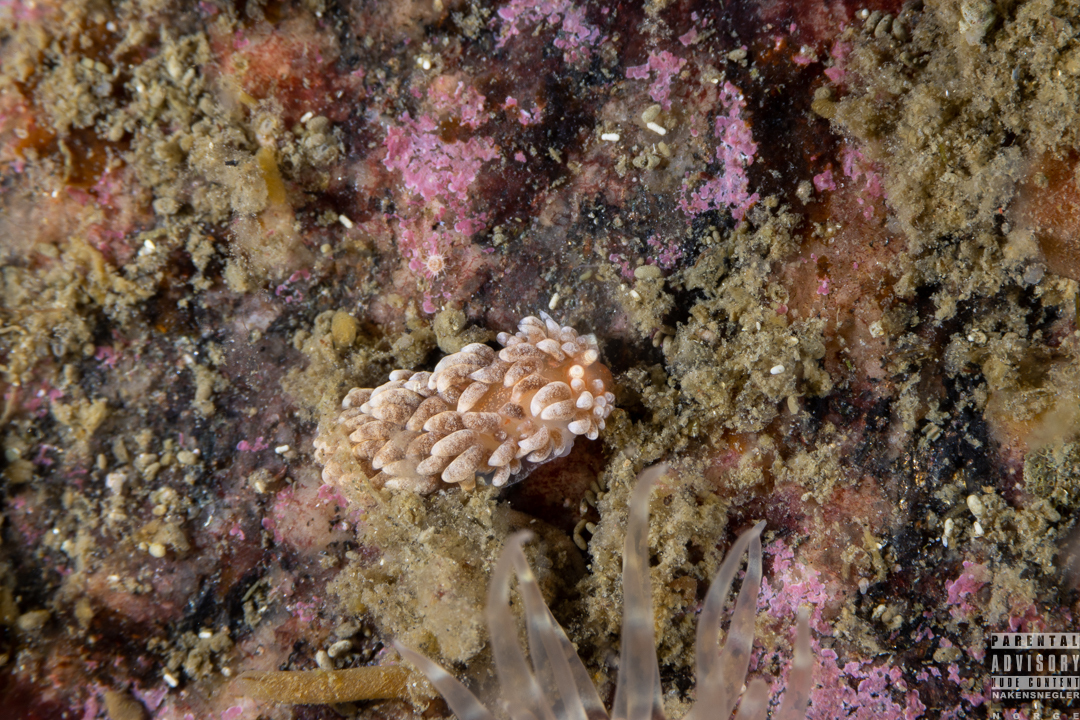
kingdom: Animalia
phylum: Mollusca
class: Gastropoda
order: Nudibranchia
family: Aeolidiidae
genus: Aeolidiella
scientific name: Aeolidiella glauca
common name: Orange-brown aeolid
